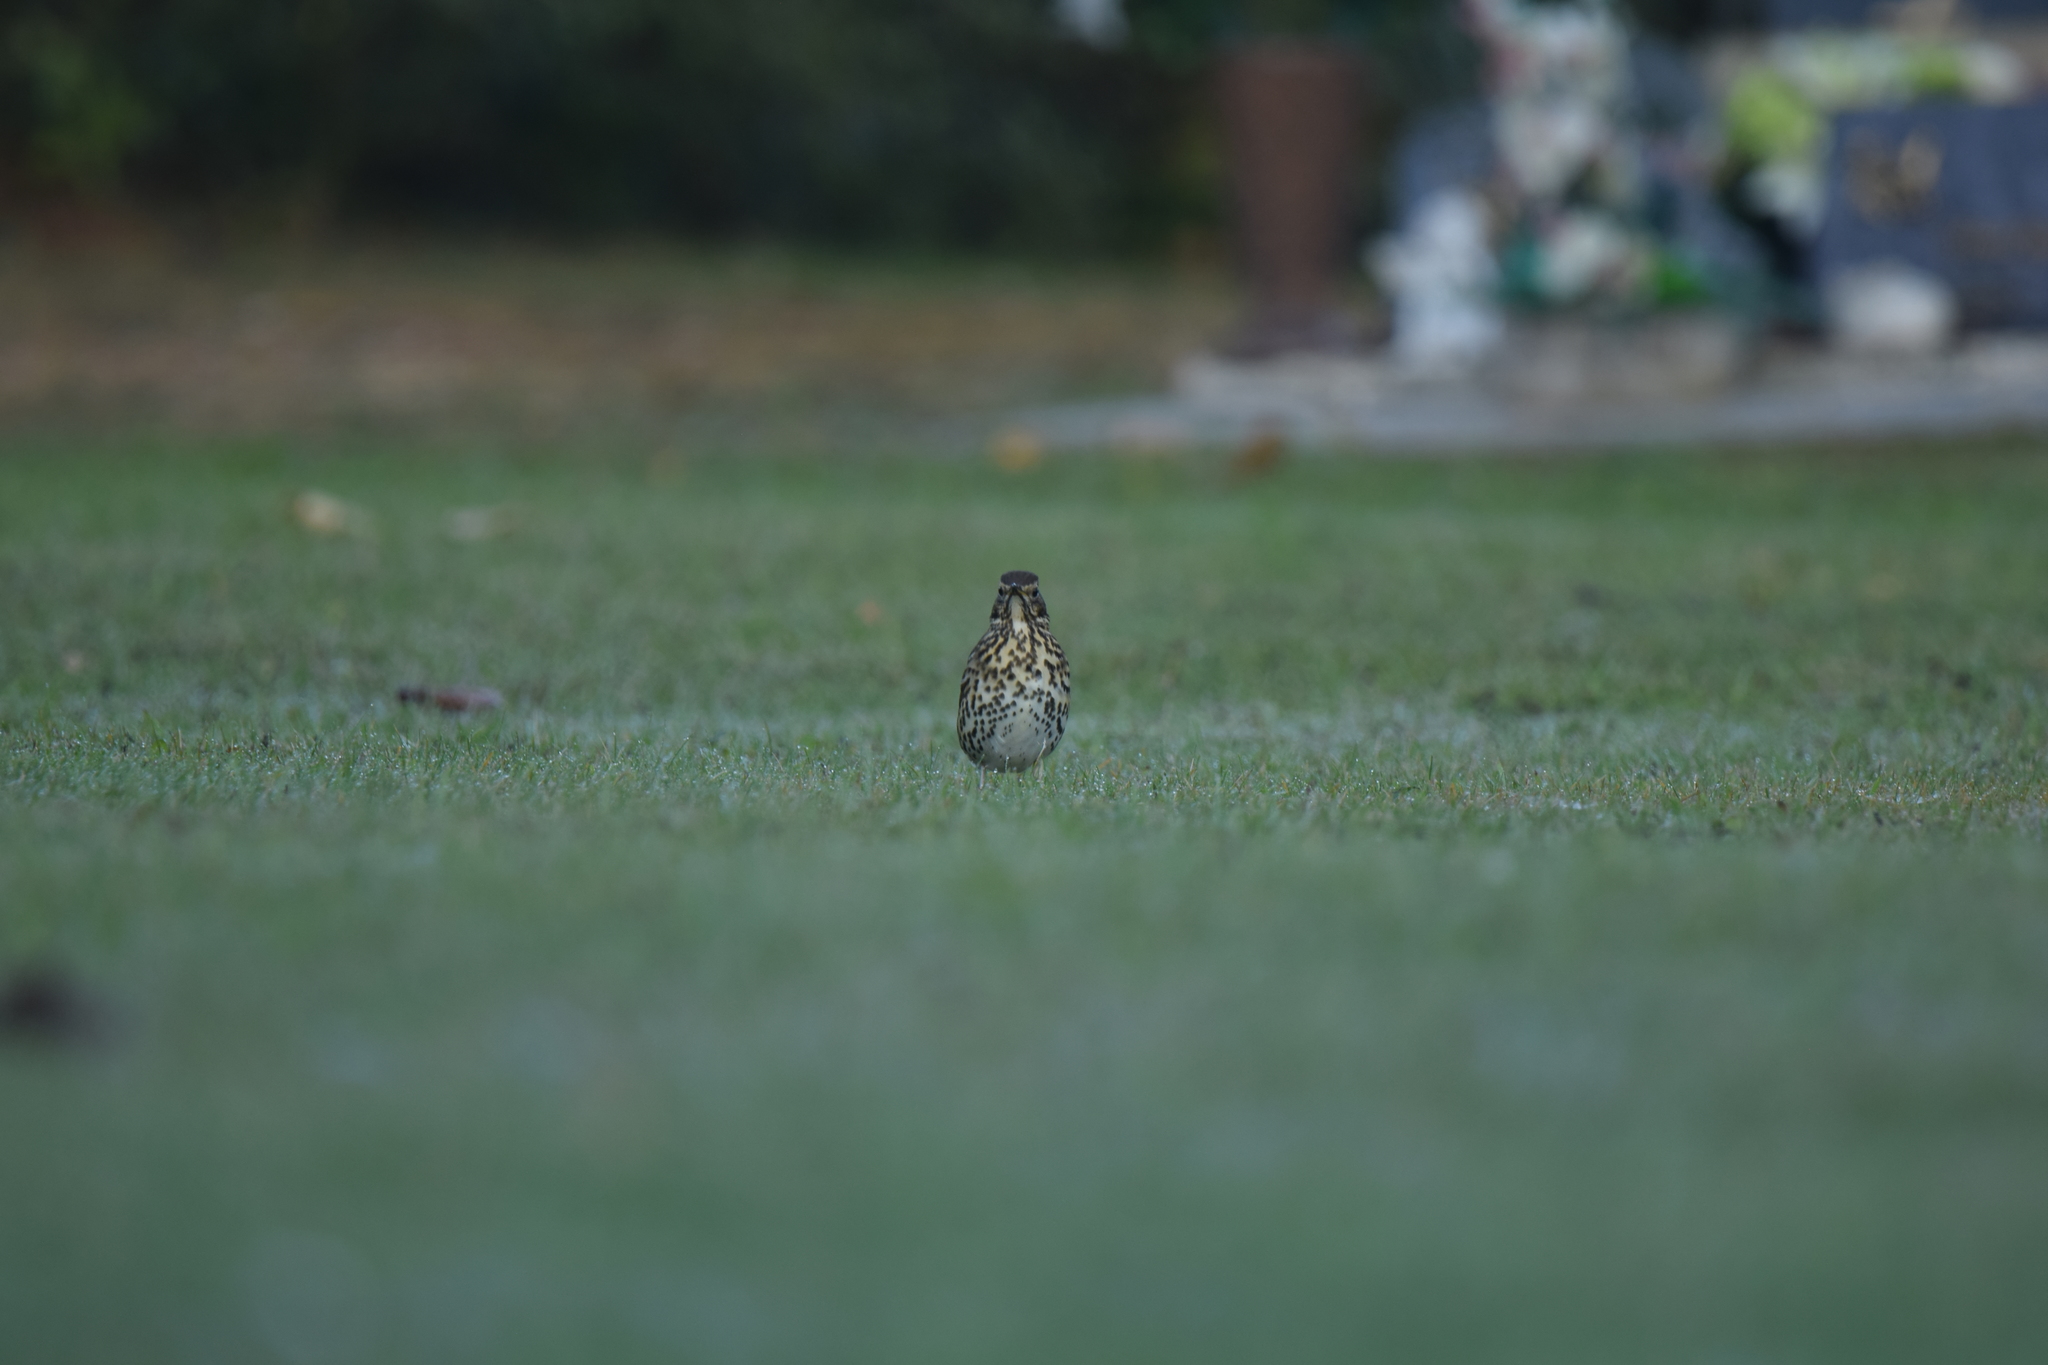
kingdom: Animalia
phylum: Chordata
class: Aves
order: Passeriformes
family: Turdidae
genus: Turdus
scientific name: Turdus philomelos
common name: Song thrush
